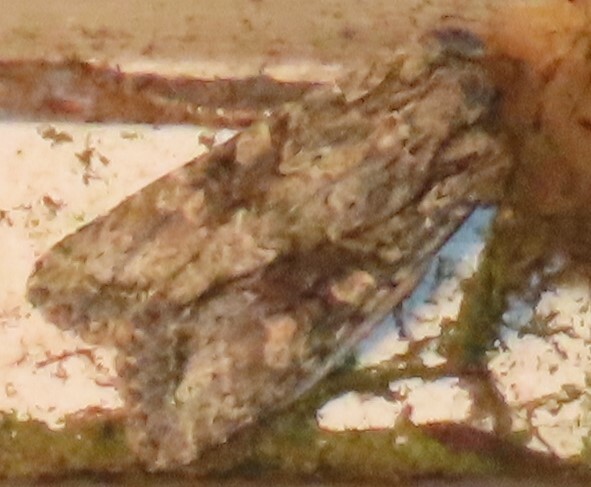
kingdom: Animalia
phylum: Arthropoda
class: Insecta
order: Lepidoptera
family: Noctuidae
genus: Ichneutica
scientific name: Ichneutica mutans
